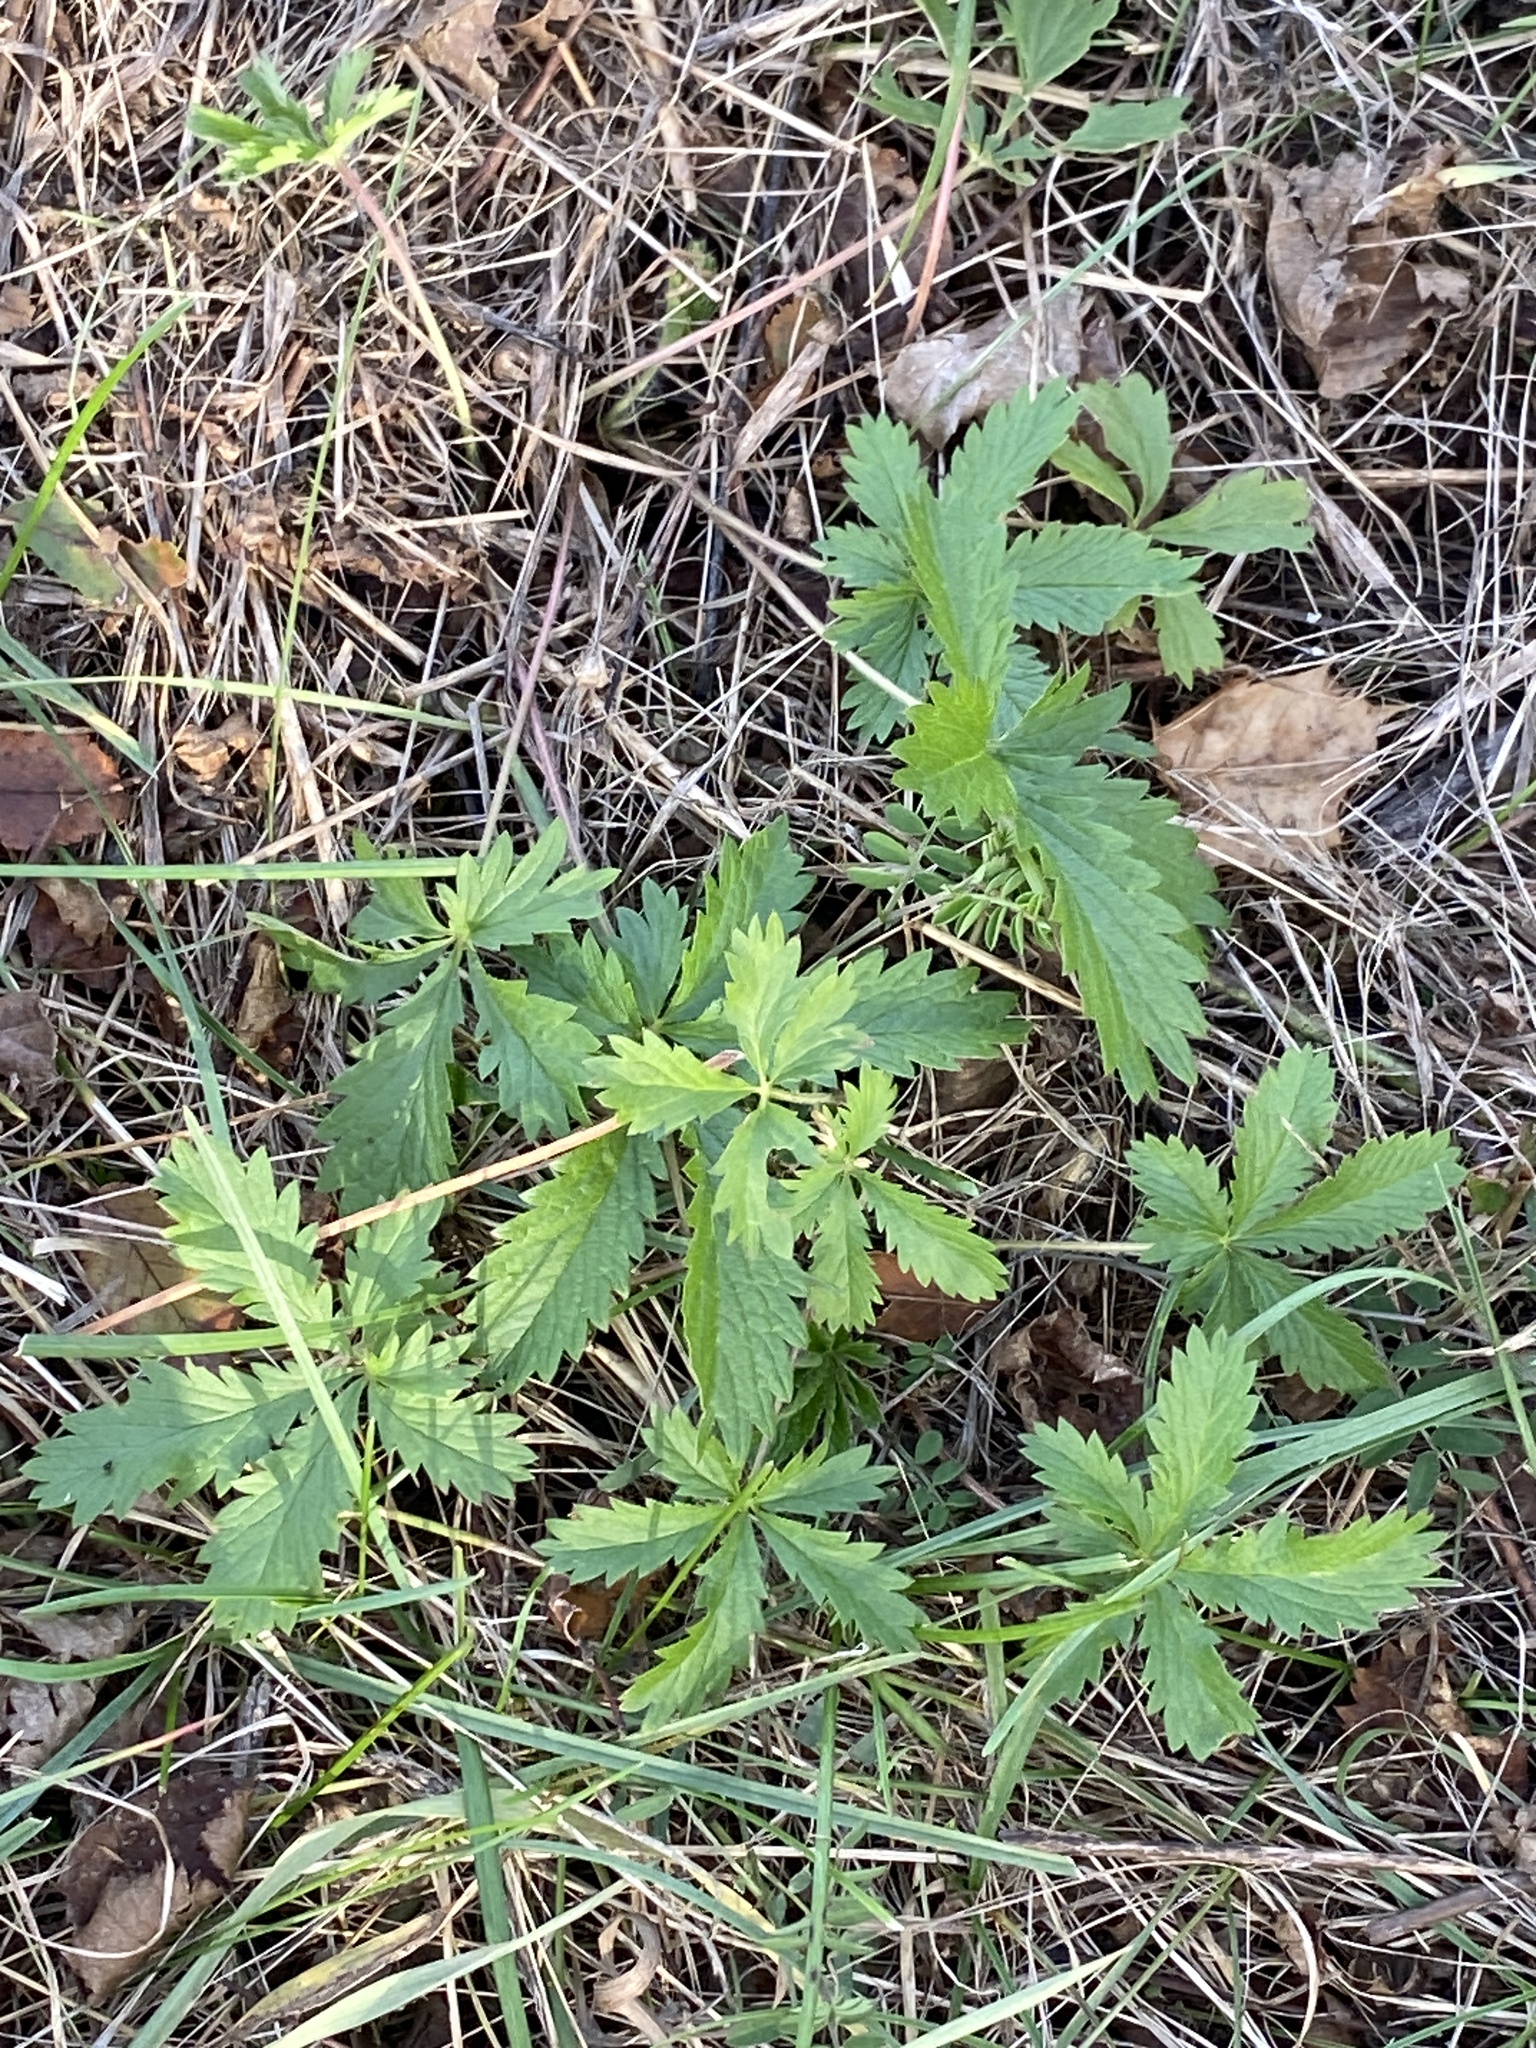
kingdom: Plantae
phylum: Tracheophyta
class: Magnoliopsida
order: Rosales
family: Rosaceae
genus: Potentilla
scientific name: Potentilla recta
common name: Sulphur cinquefoil
